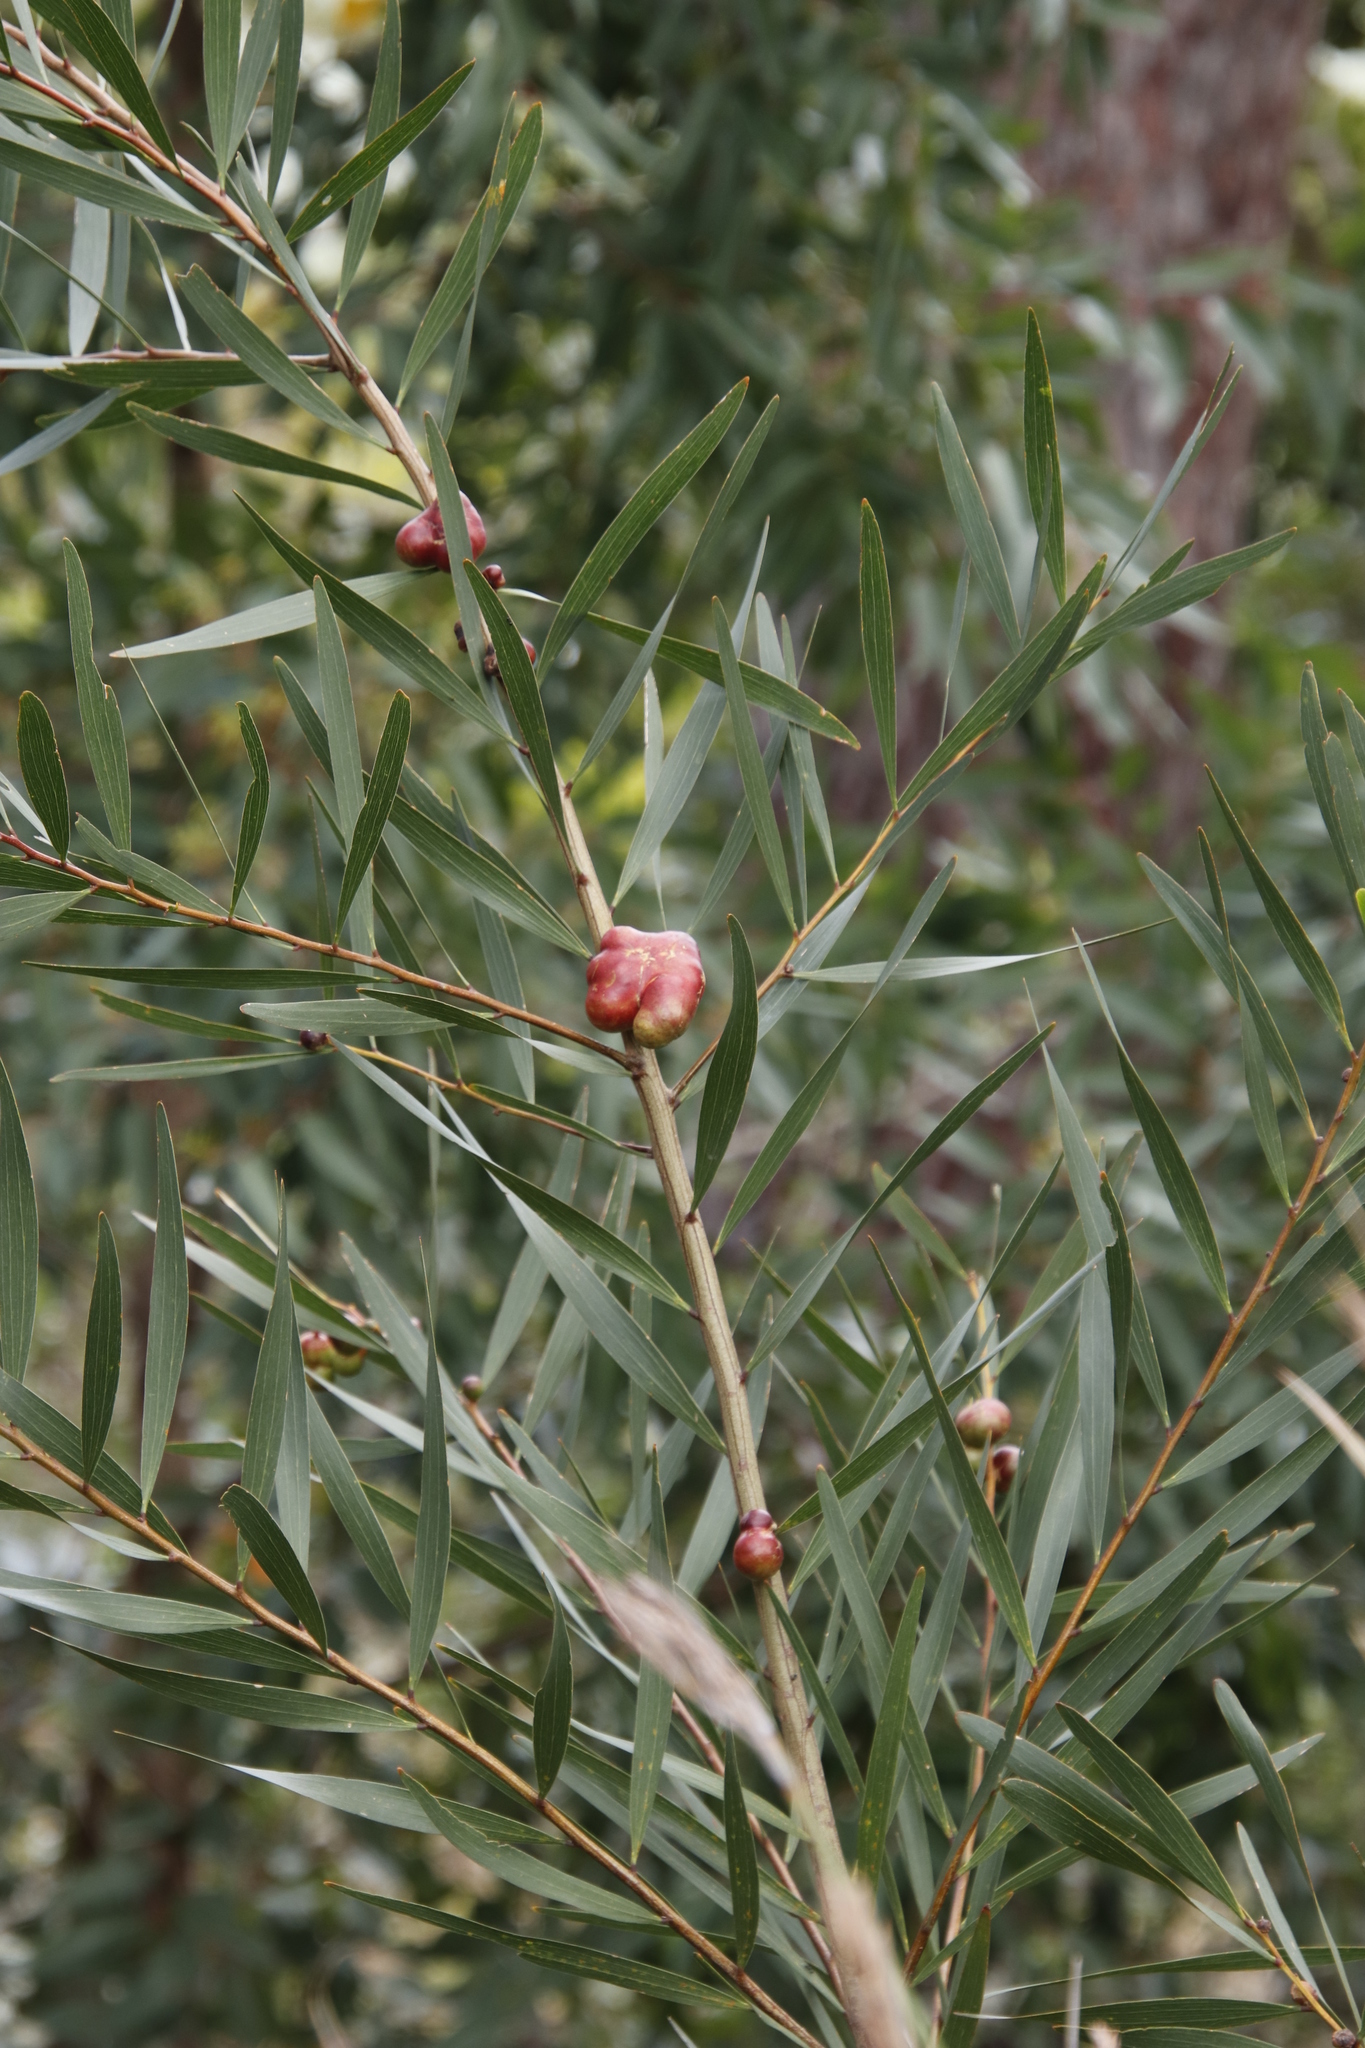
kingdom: Animalia
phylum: Arthropoda
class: Insecta
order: Hymenoptera
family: Pteromalidae
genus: Trichilogaster
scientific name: Trichilogaster acaciaelongifoliae
